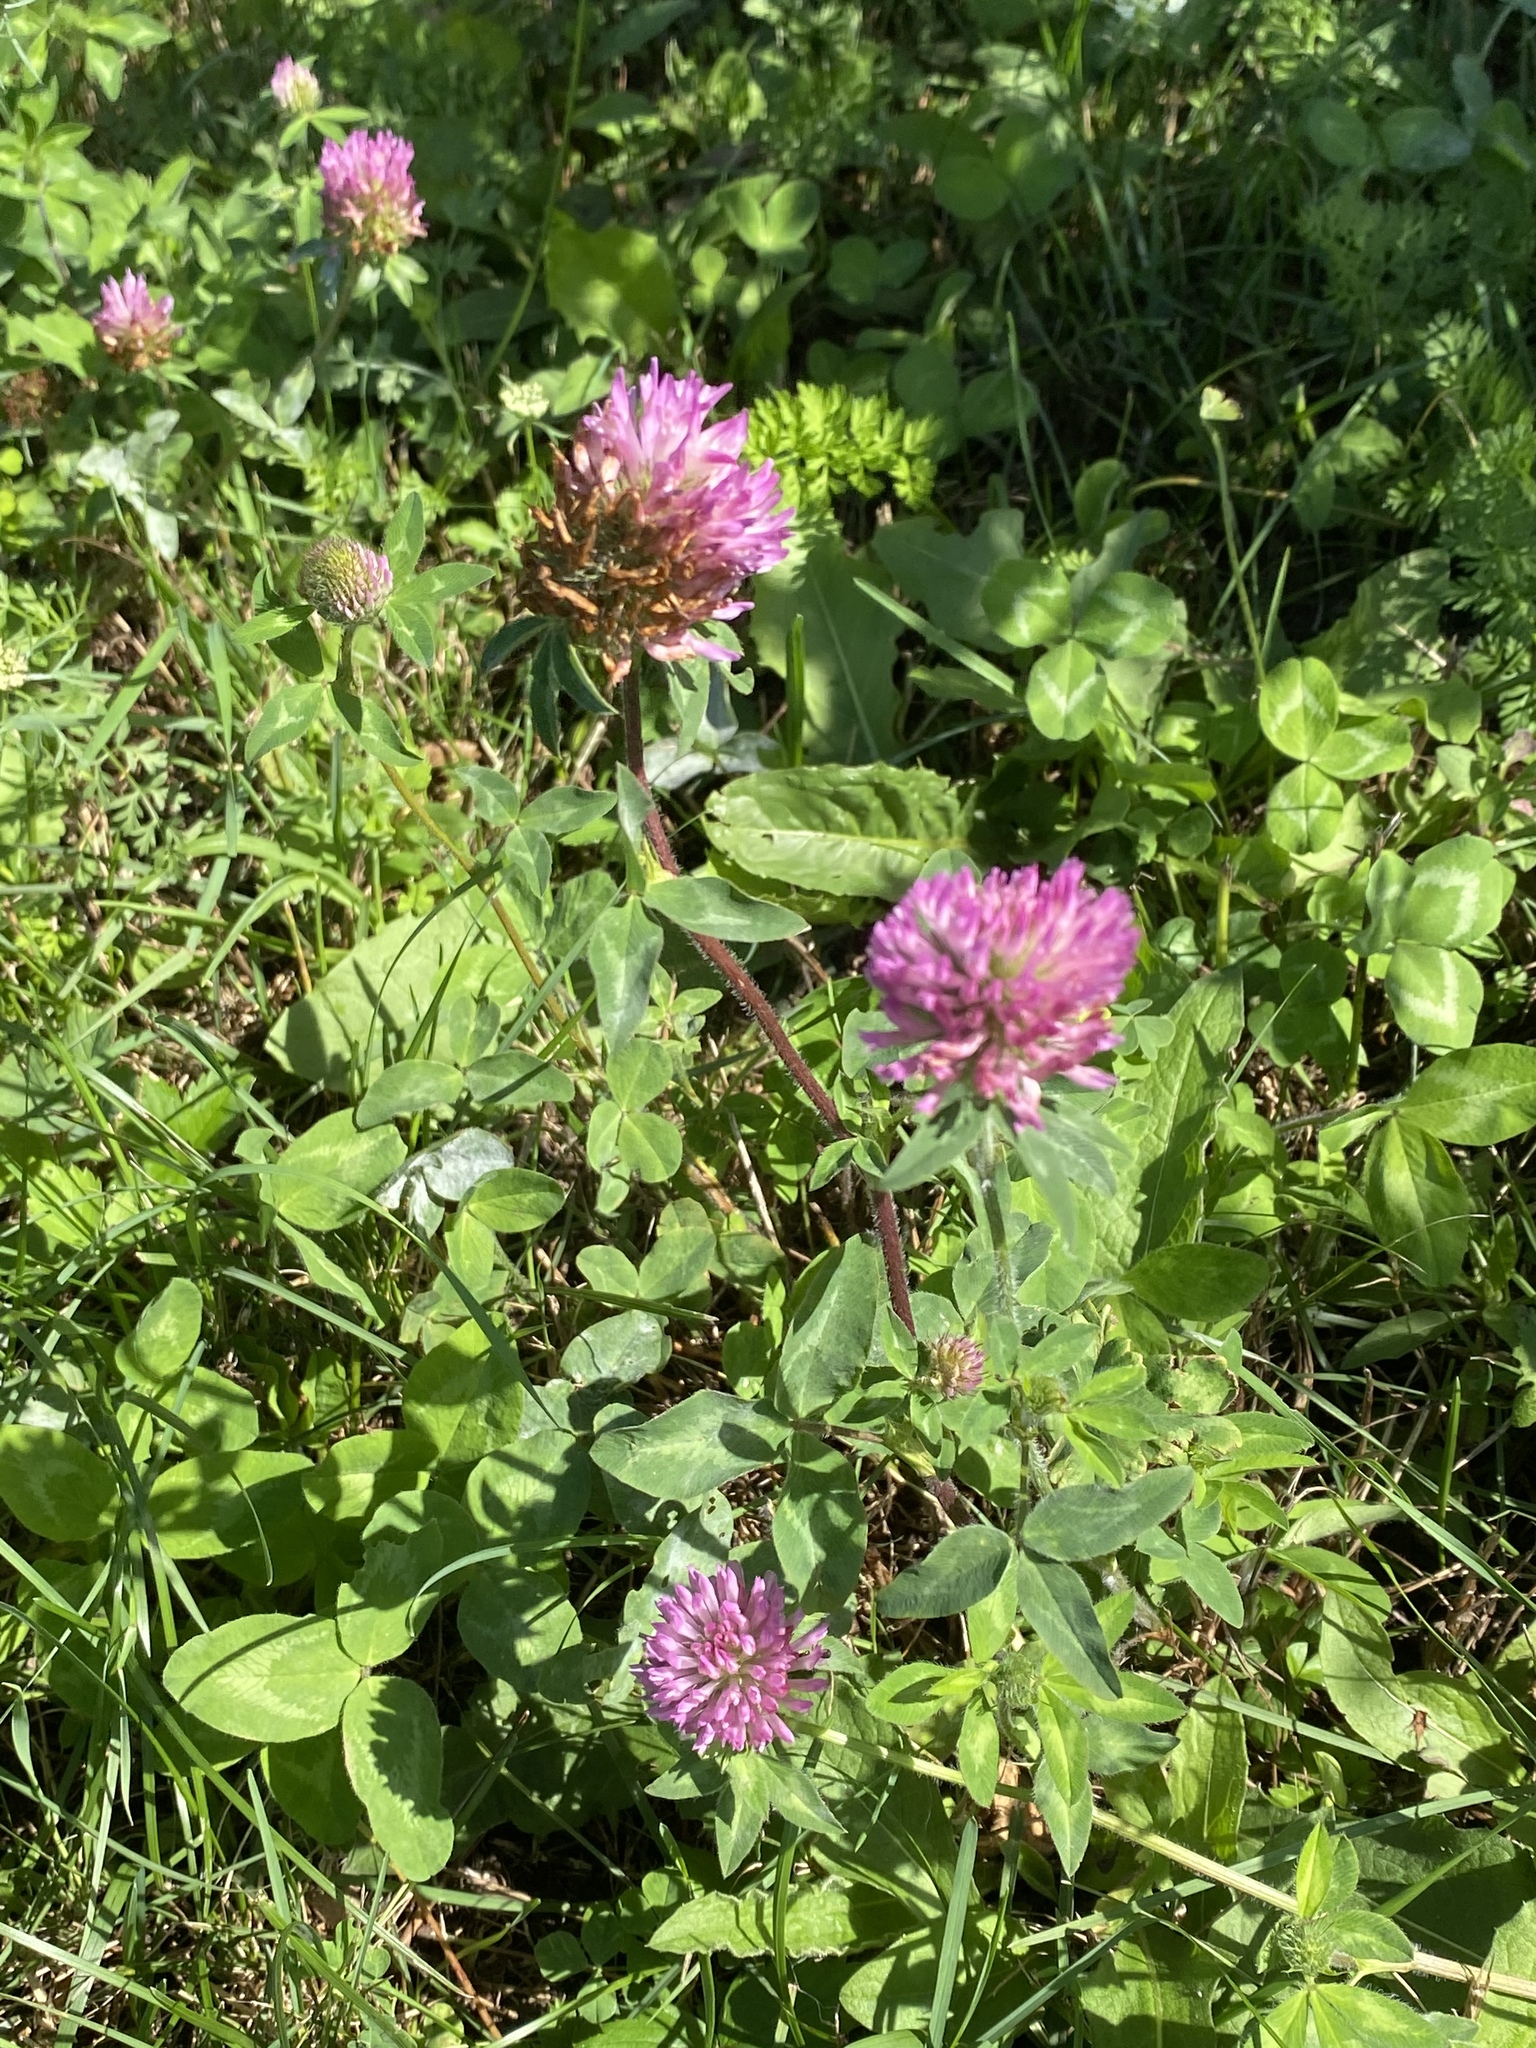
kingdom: Plantae
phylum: Tracheophyta
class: Magnoliopsida
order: Fabales
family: Fabaceae
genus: Trifolium
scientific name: Trifolium pratense
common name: Red clover
